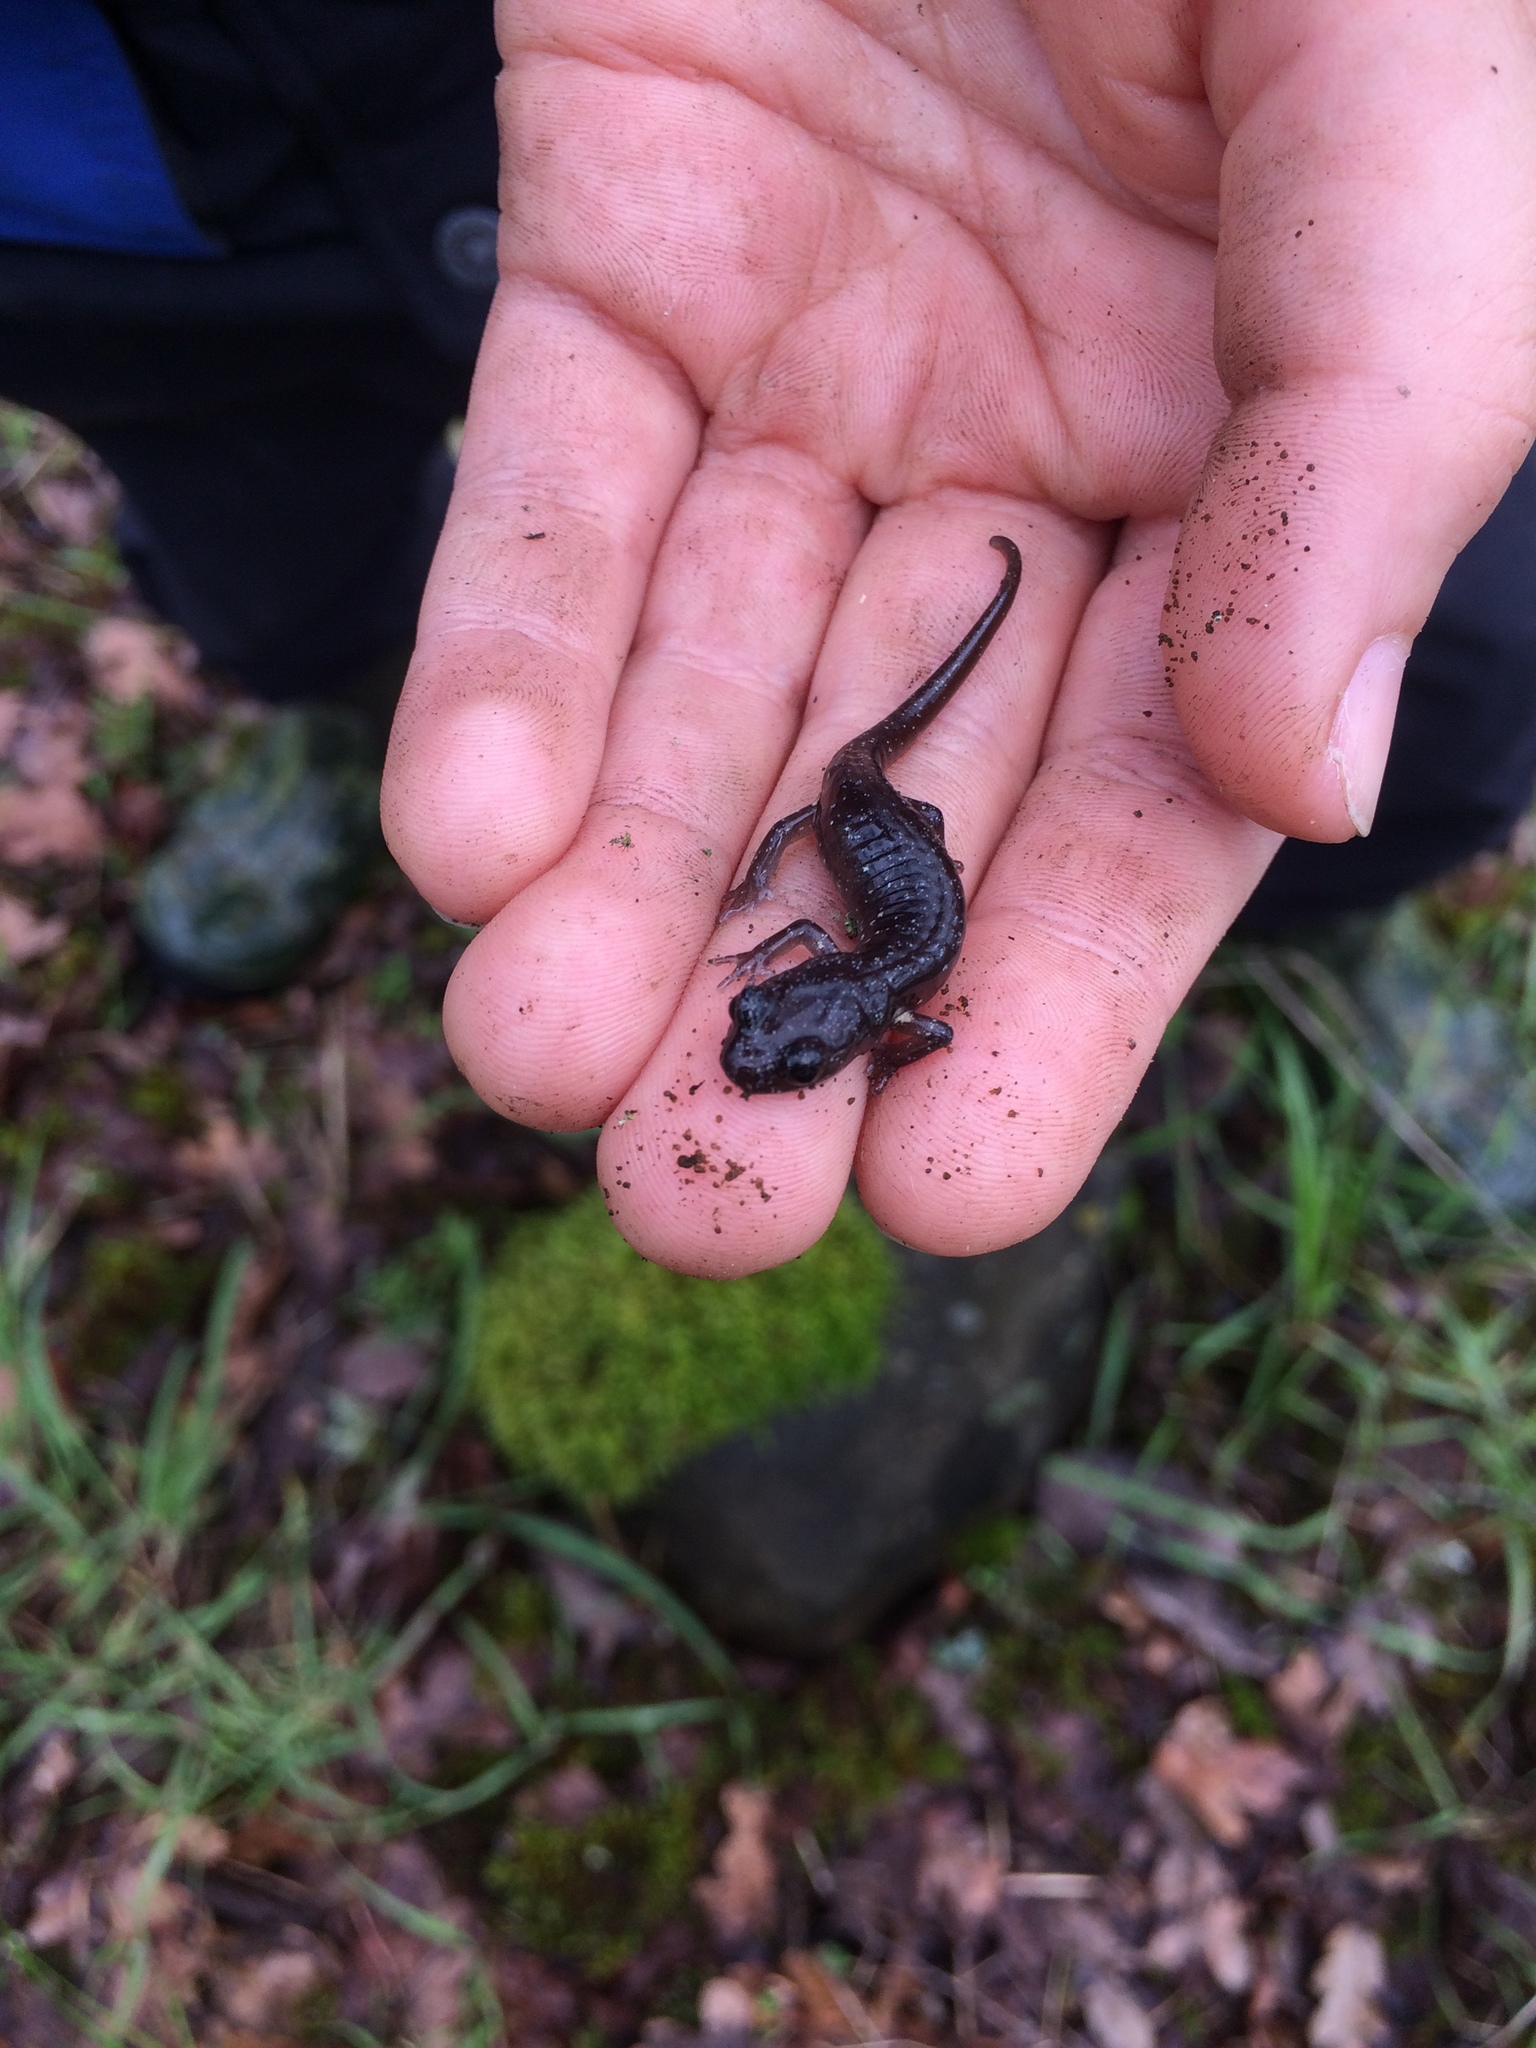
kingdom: Animalia
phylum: Chordata
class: Amphibia
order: Caudata
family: Plethodontidae
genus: Aneides
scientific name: Aneides lugubris
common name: Arboreal salamander
